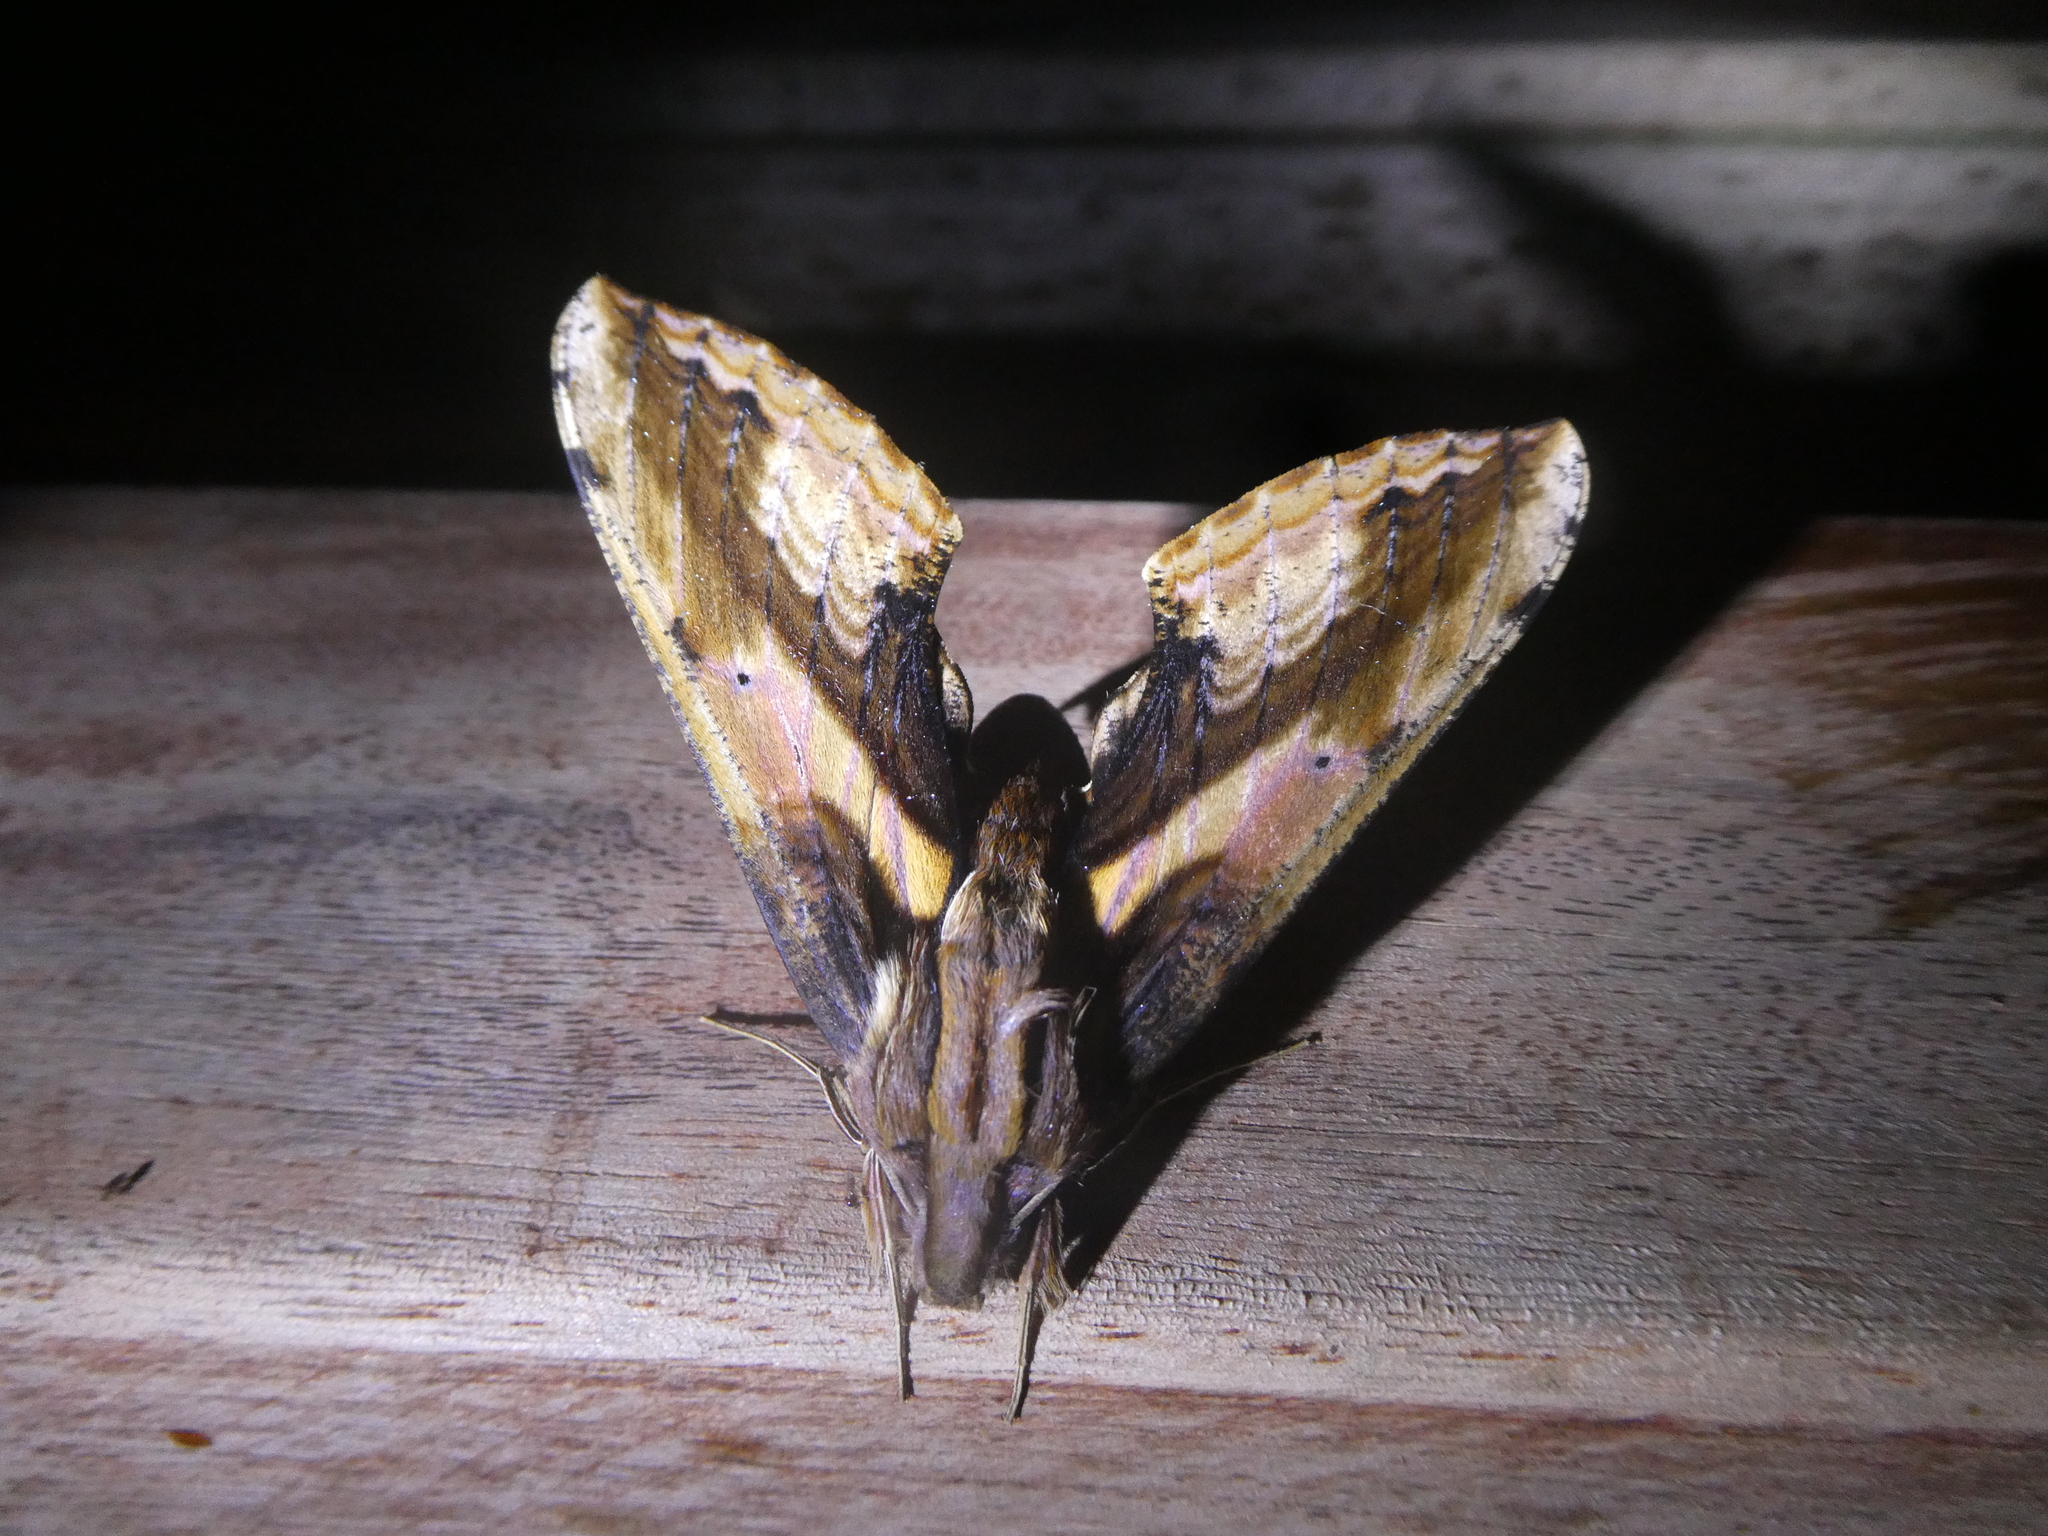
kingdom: Animalia
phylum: Arthropoda
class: Insecta
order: Lepidoptera
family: Sphingidae
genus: Xylophanes
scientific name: Xylophanes ceratomioides
